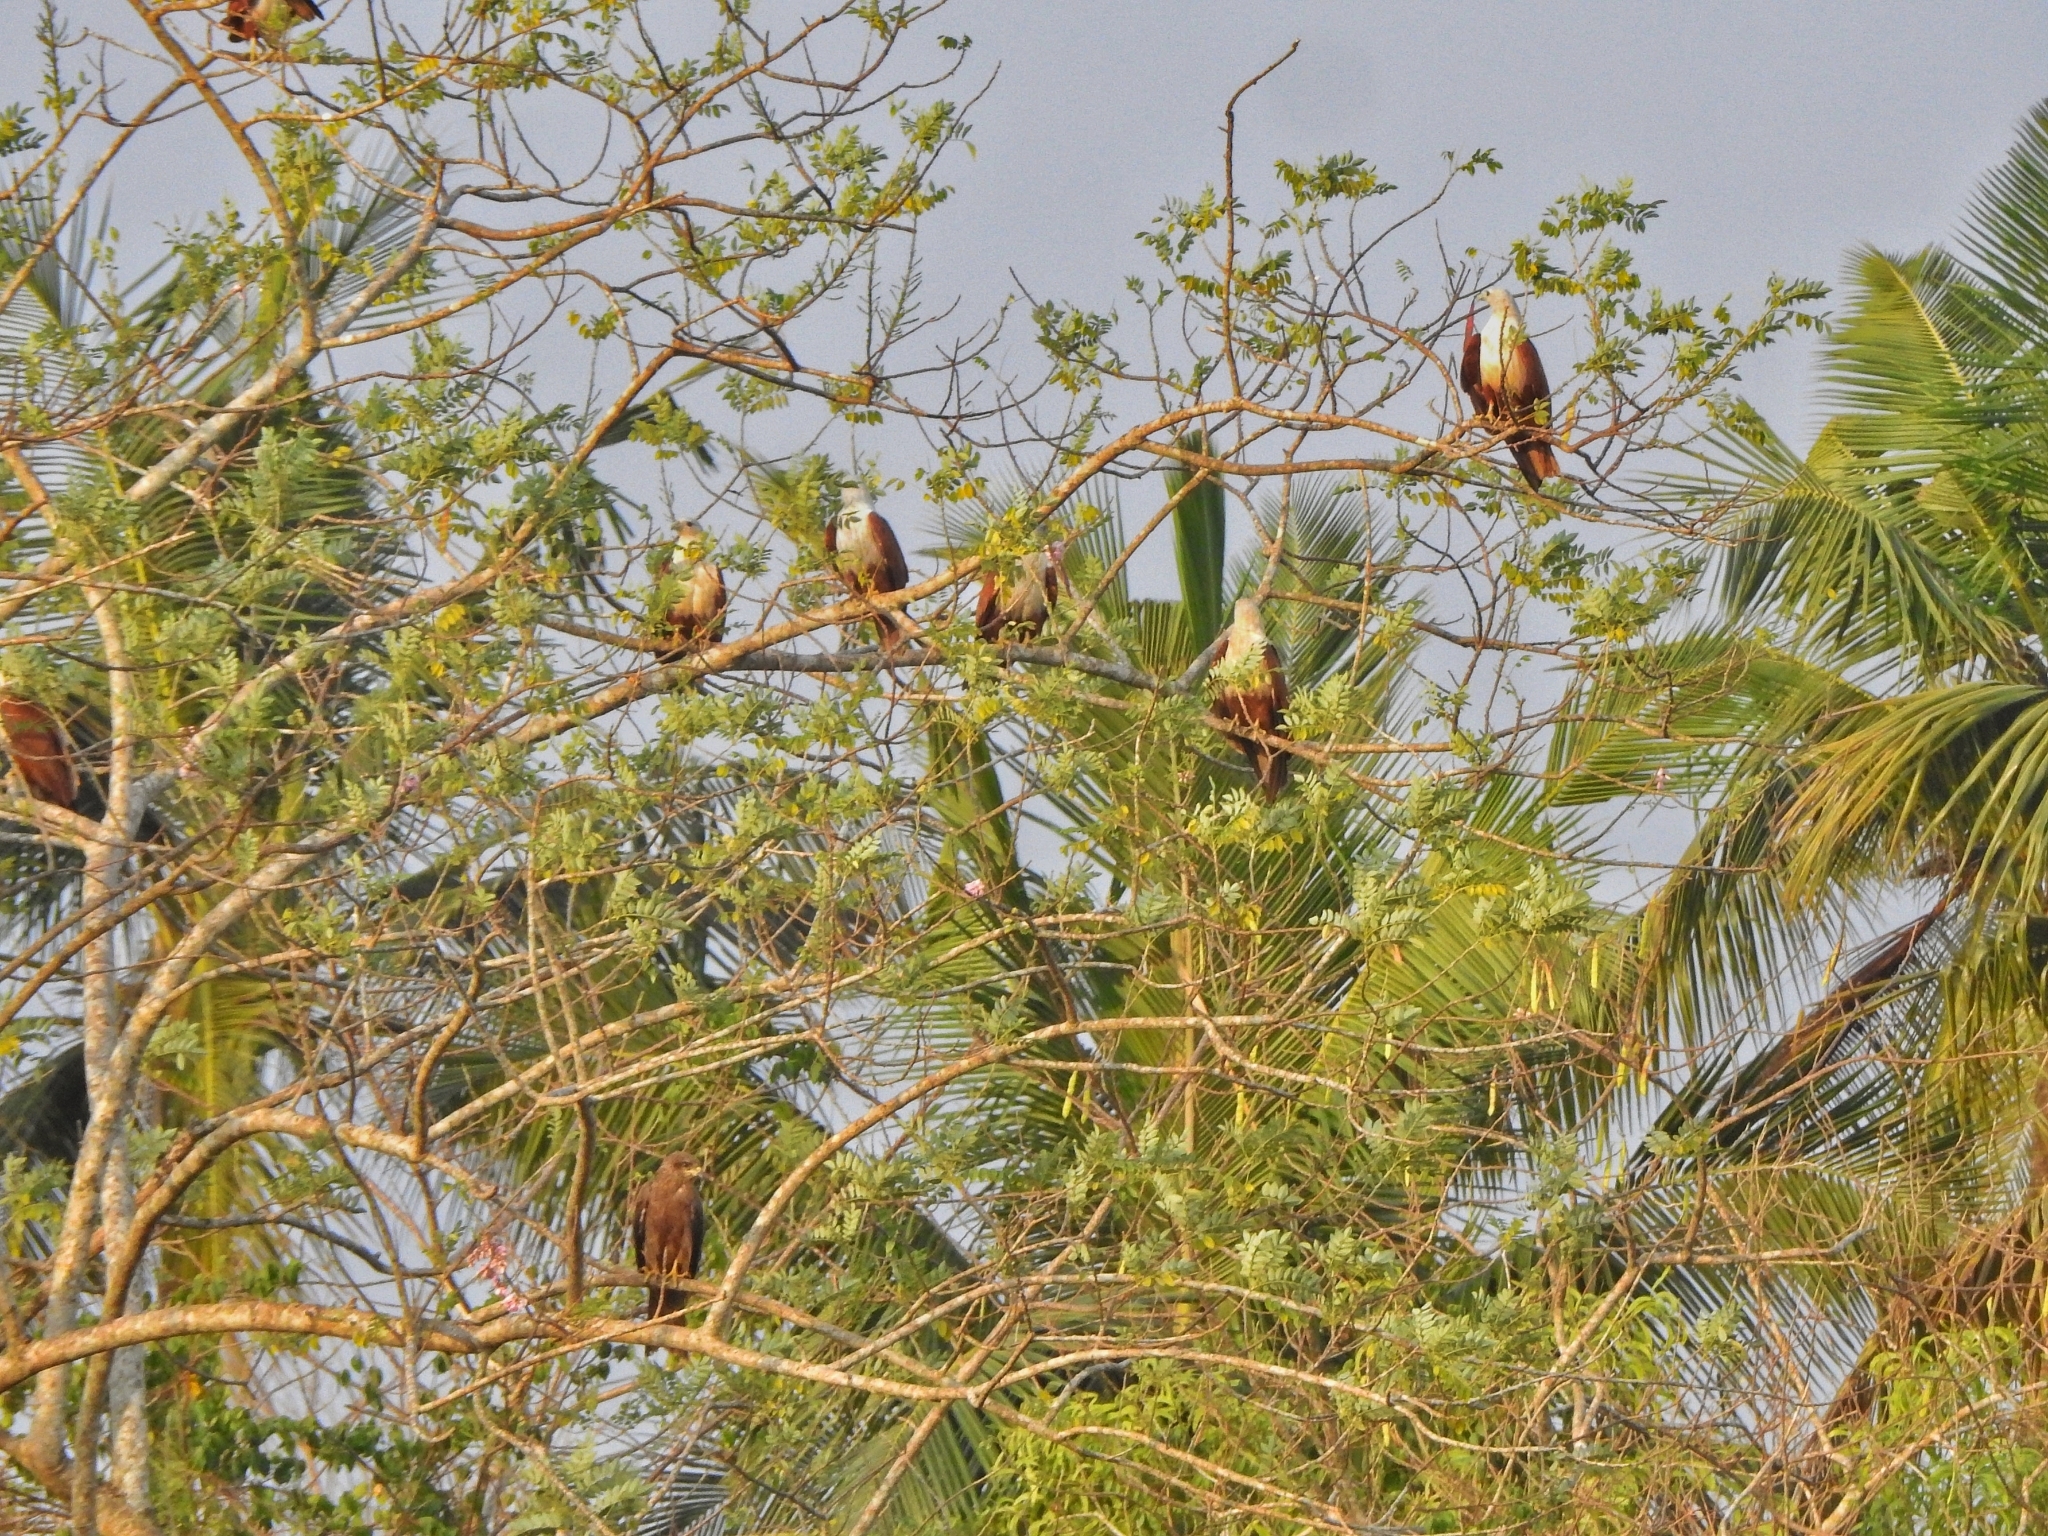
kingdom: Animalia
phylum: Chordata
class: Aves
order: Accipitriformes
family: Accipitridae
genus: Haliastur
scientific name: Haliastur indus
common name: Brahminy kite
